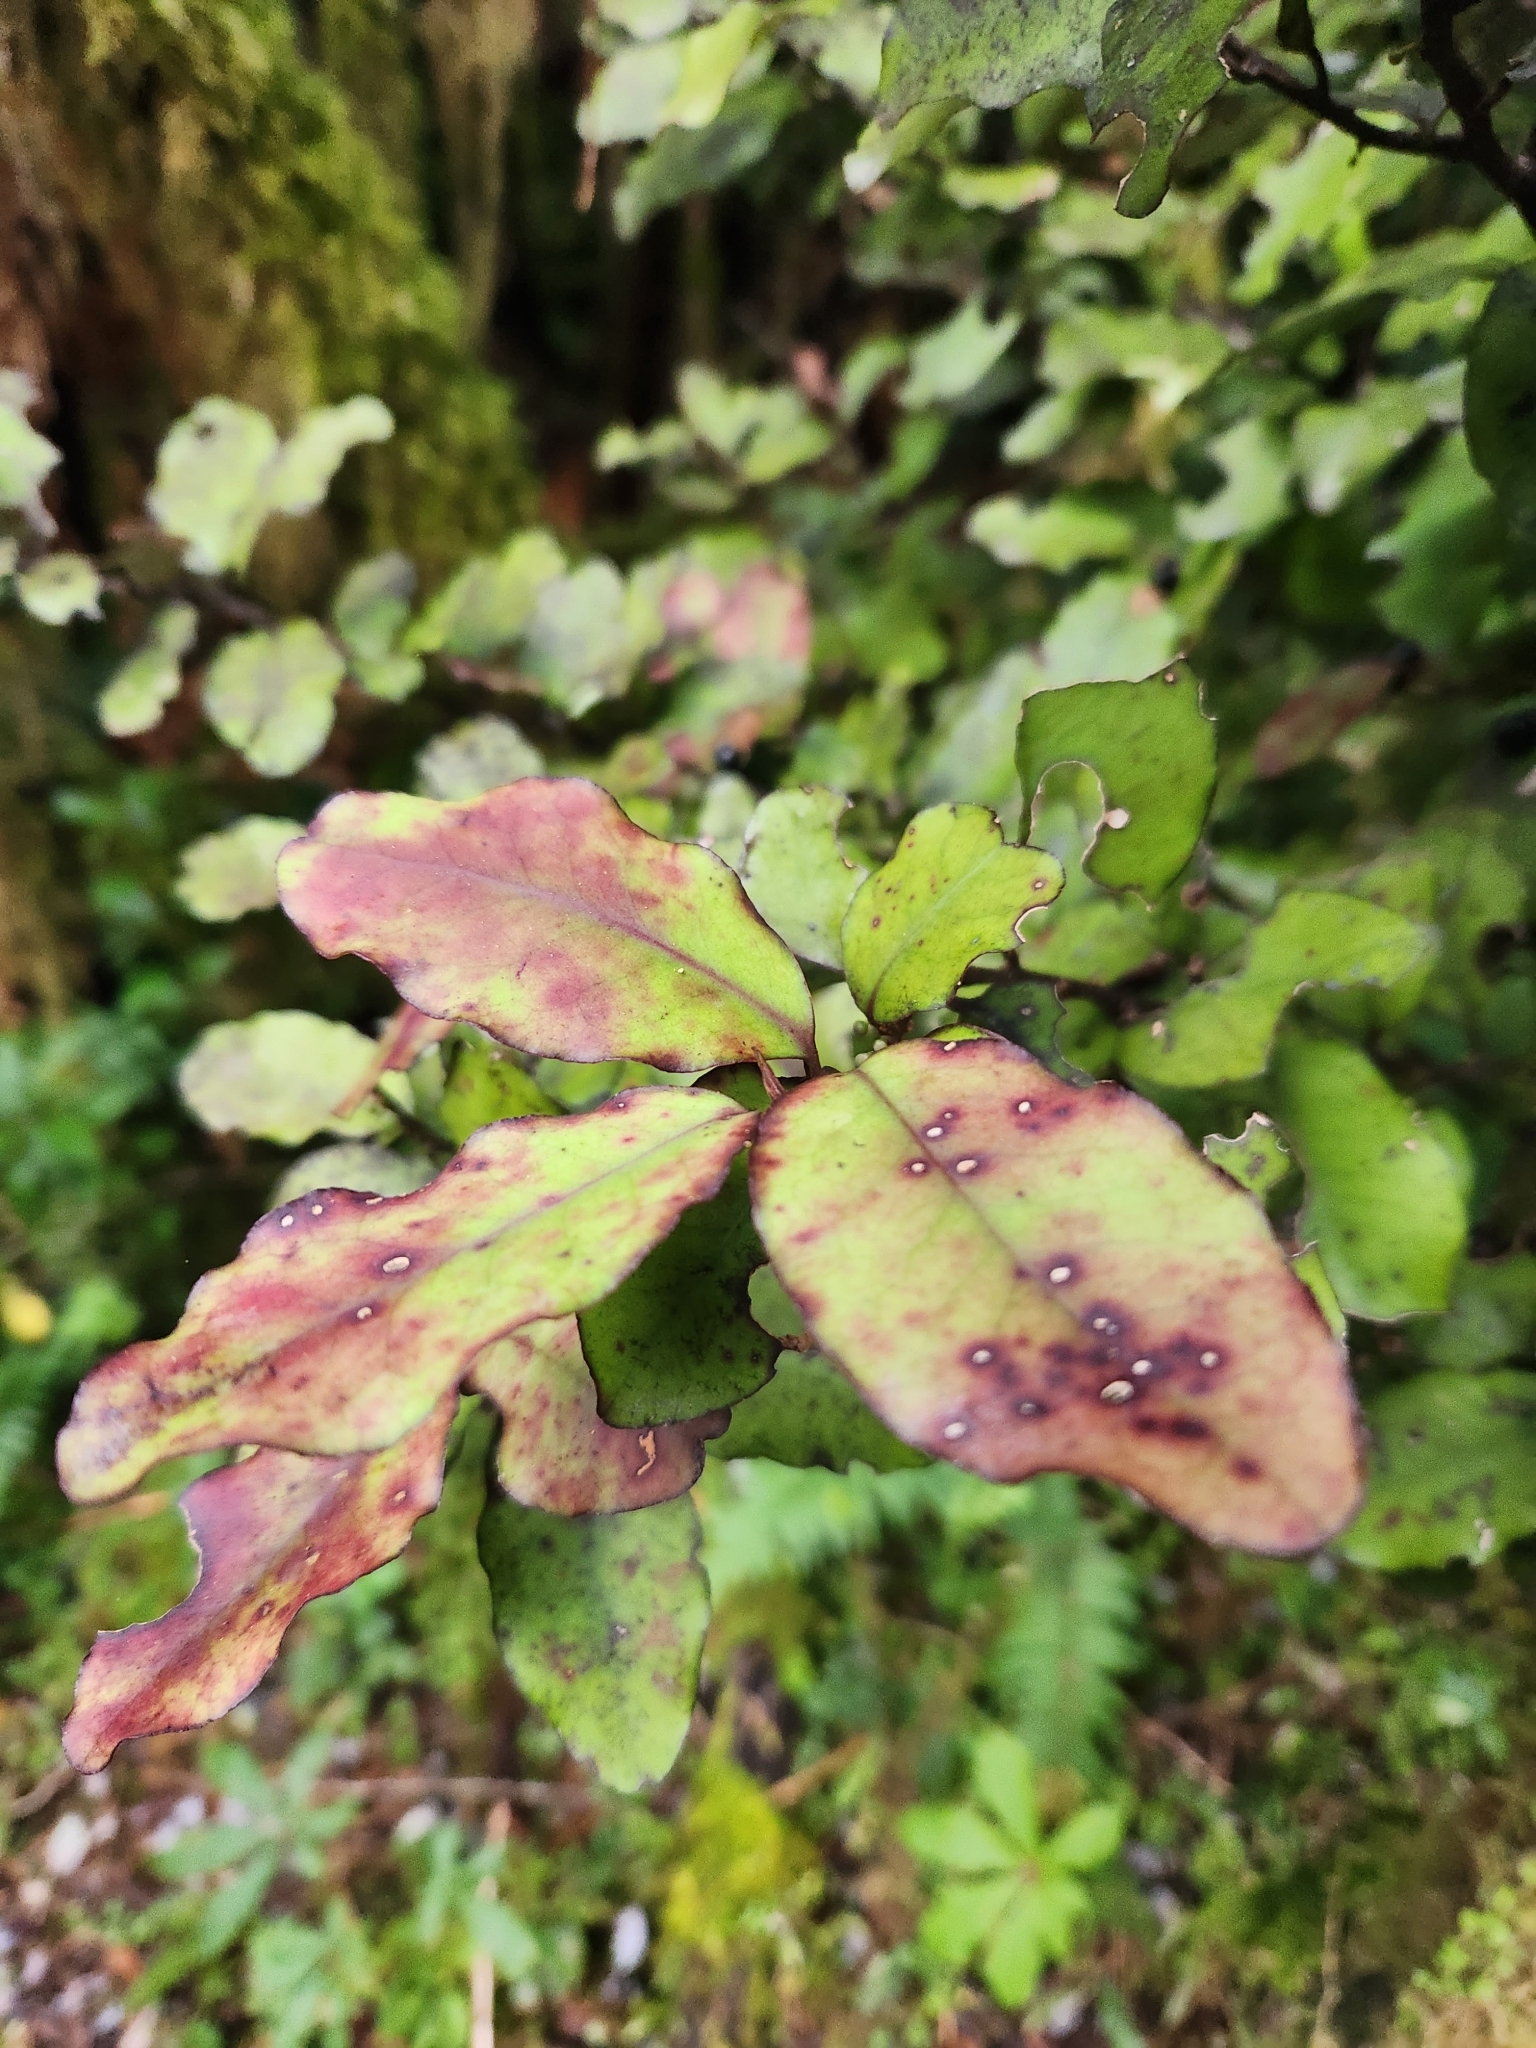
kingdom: Plantae
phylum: Tracheophyta
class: Magnoliopsida
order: Canellales
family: Winteraceae
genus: Pseudowintera
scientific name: Pseudowintera colorata
